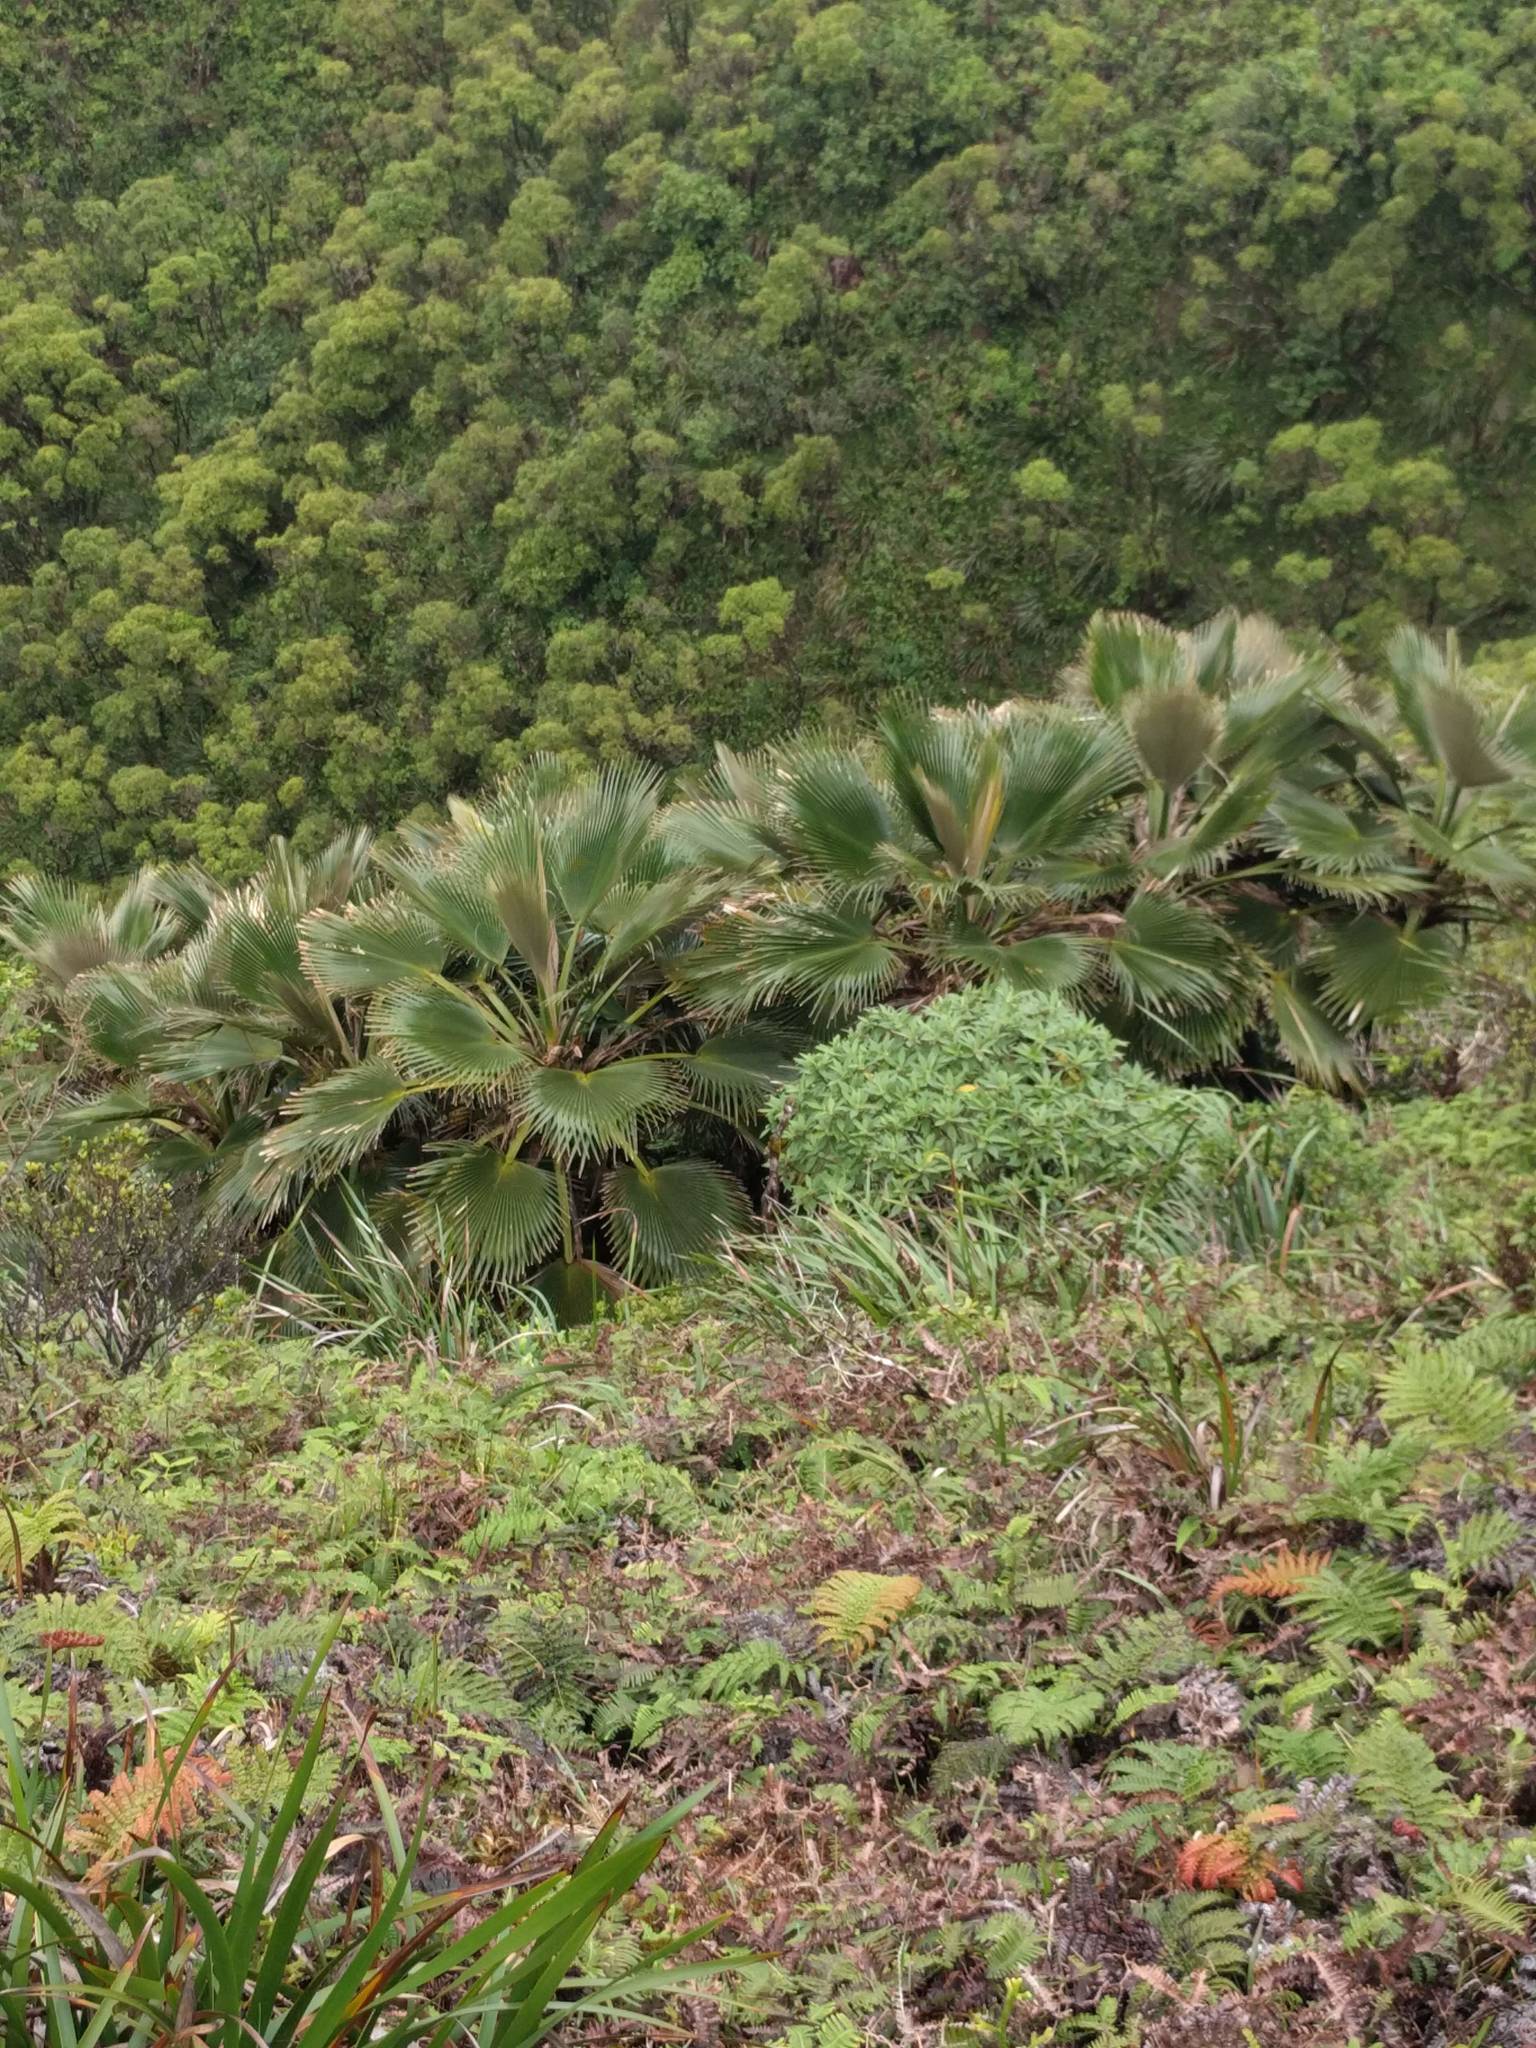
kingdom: Plantae
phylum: Tracheophyta
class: Liliopsida
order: Arecales
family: Arecaceae
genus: Pritchardia
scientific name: Pritchardia martii
